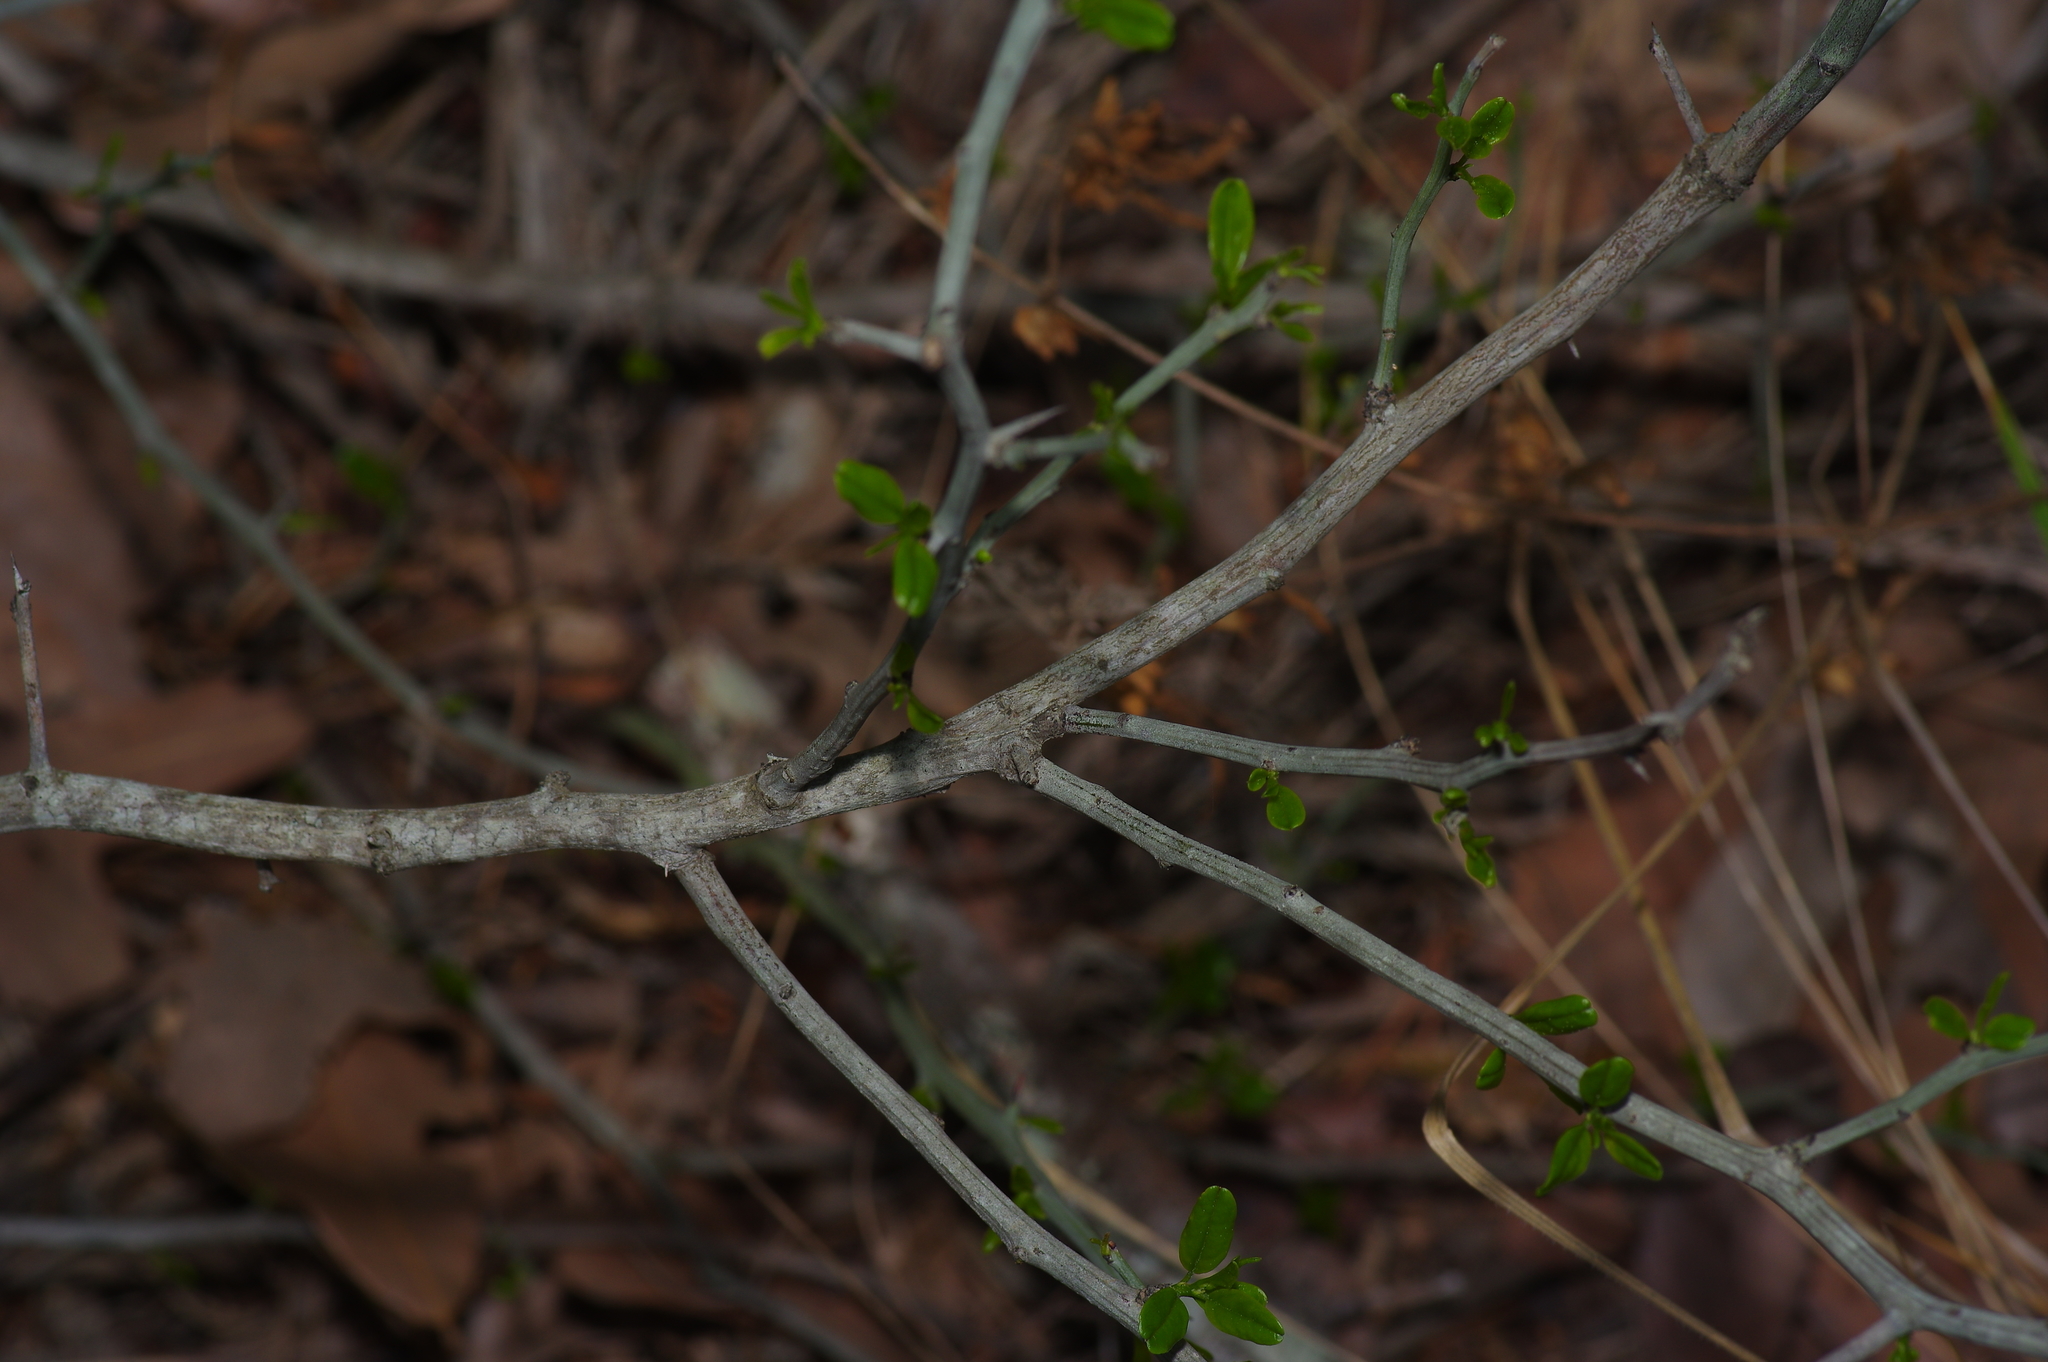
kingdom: Plantae
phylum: Tracheophyta
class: Magnoliopsida
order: Rosales
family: Rhamnaceae
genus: Sarcomphalus
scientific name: Sarcomphalus obtusifolius
